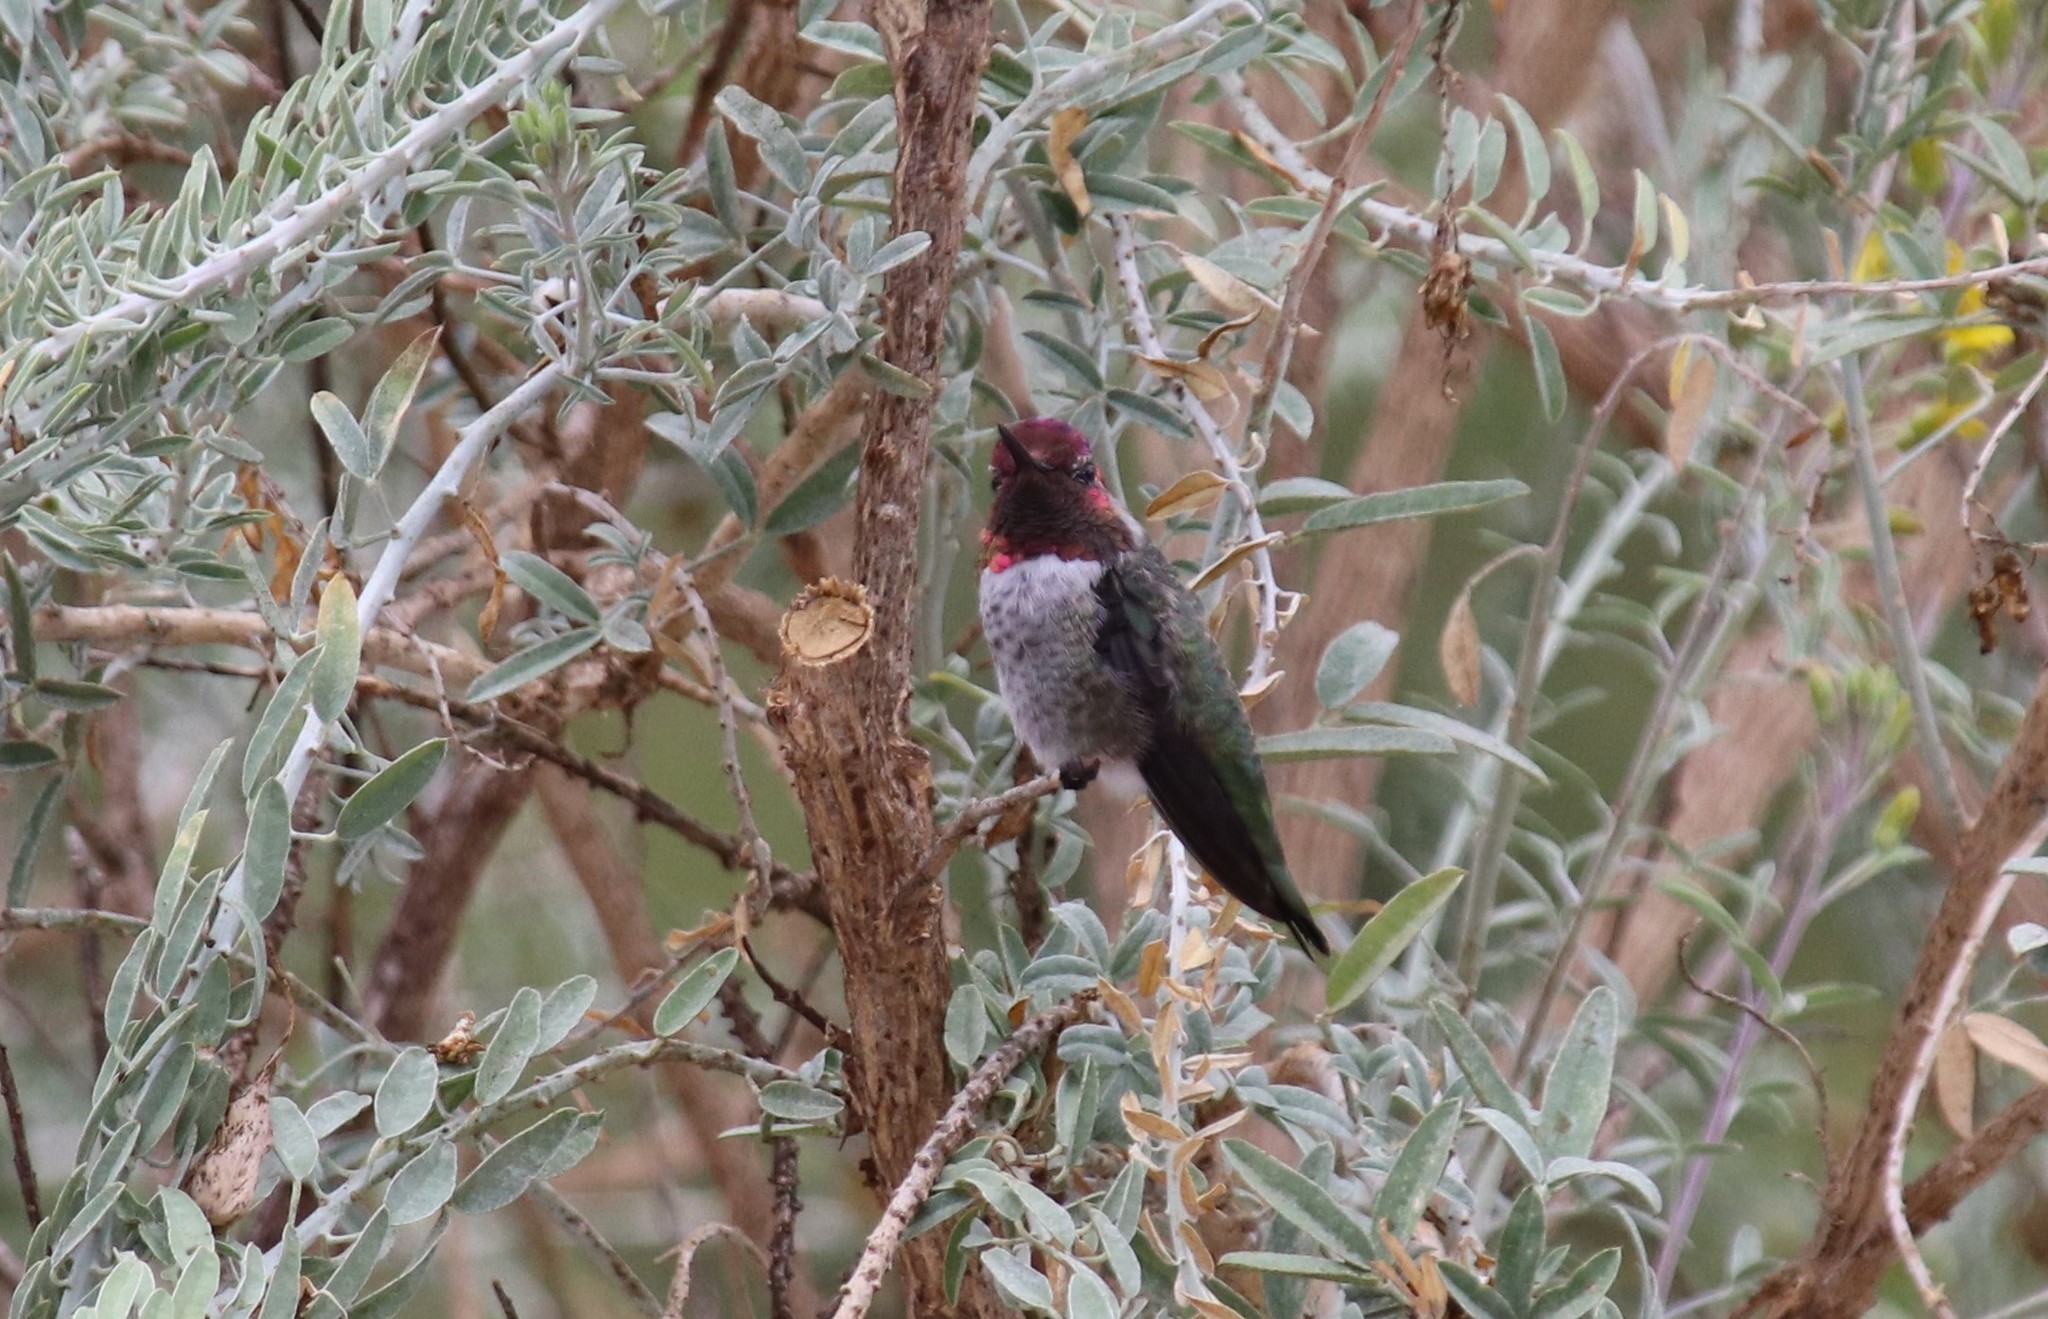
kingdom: Animalia
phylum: Chordata
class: Aves
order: Apodiformes
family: Trochilidae
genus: Calypte
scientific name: Calypte anna
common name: Anna's hummingbird
